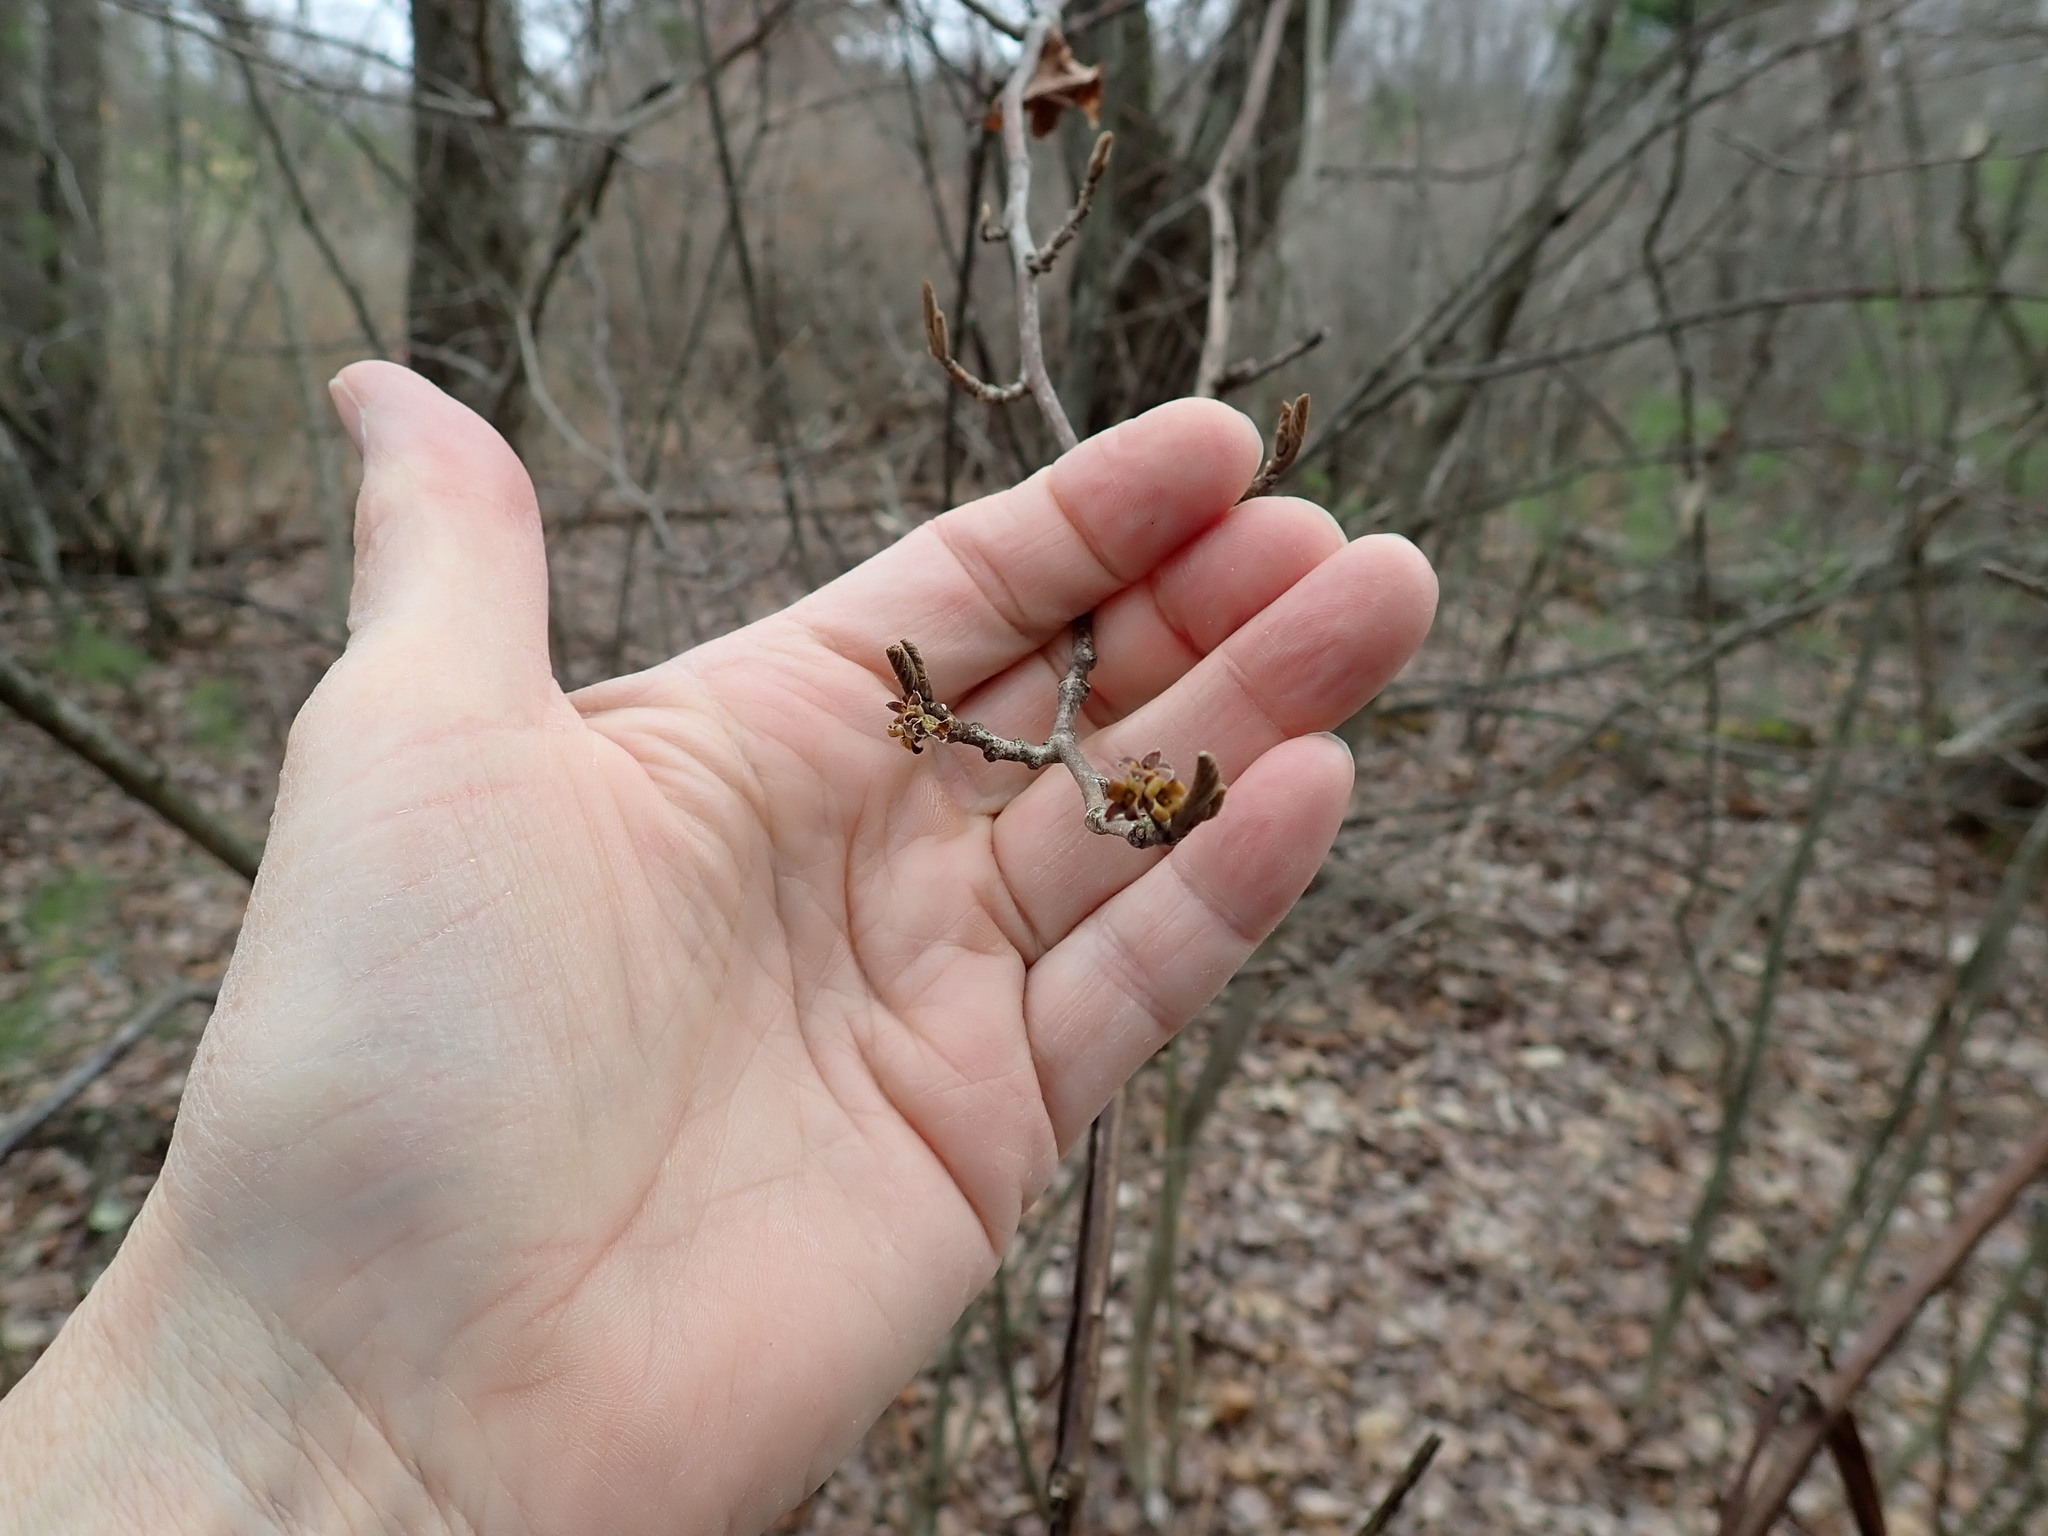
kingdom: Plantae
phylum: Tracheophyta
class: Magnoliopsida
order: Saxifragales
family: Hamamelidaceae
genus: Hamamelis
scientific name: Hamamelis virginiana
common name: Witch-hazel
